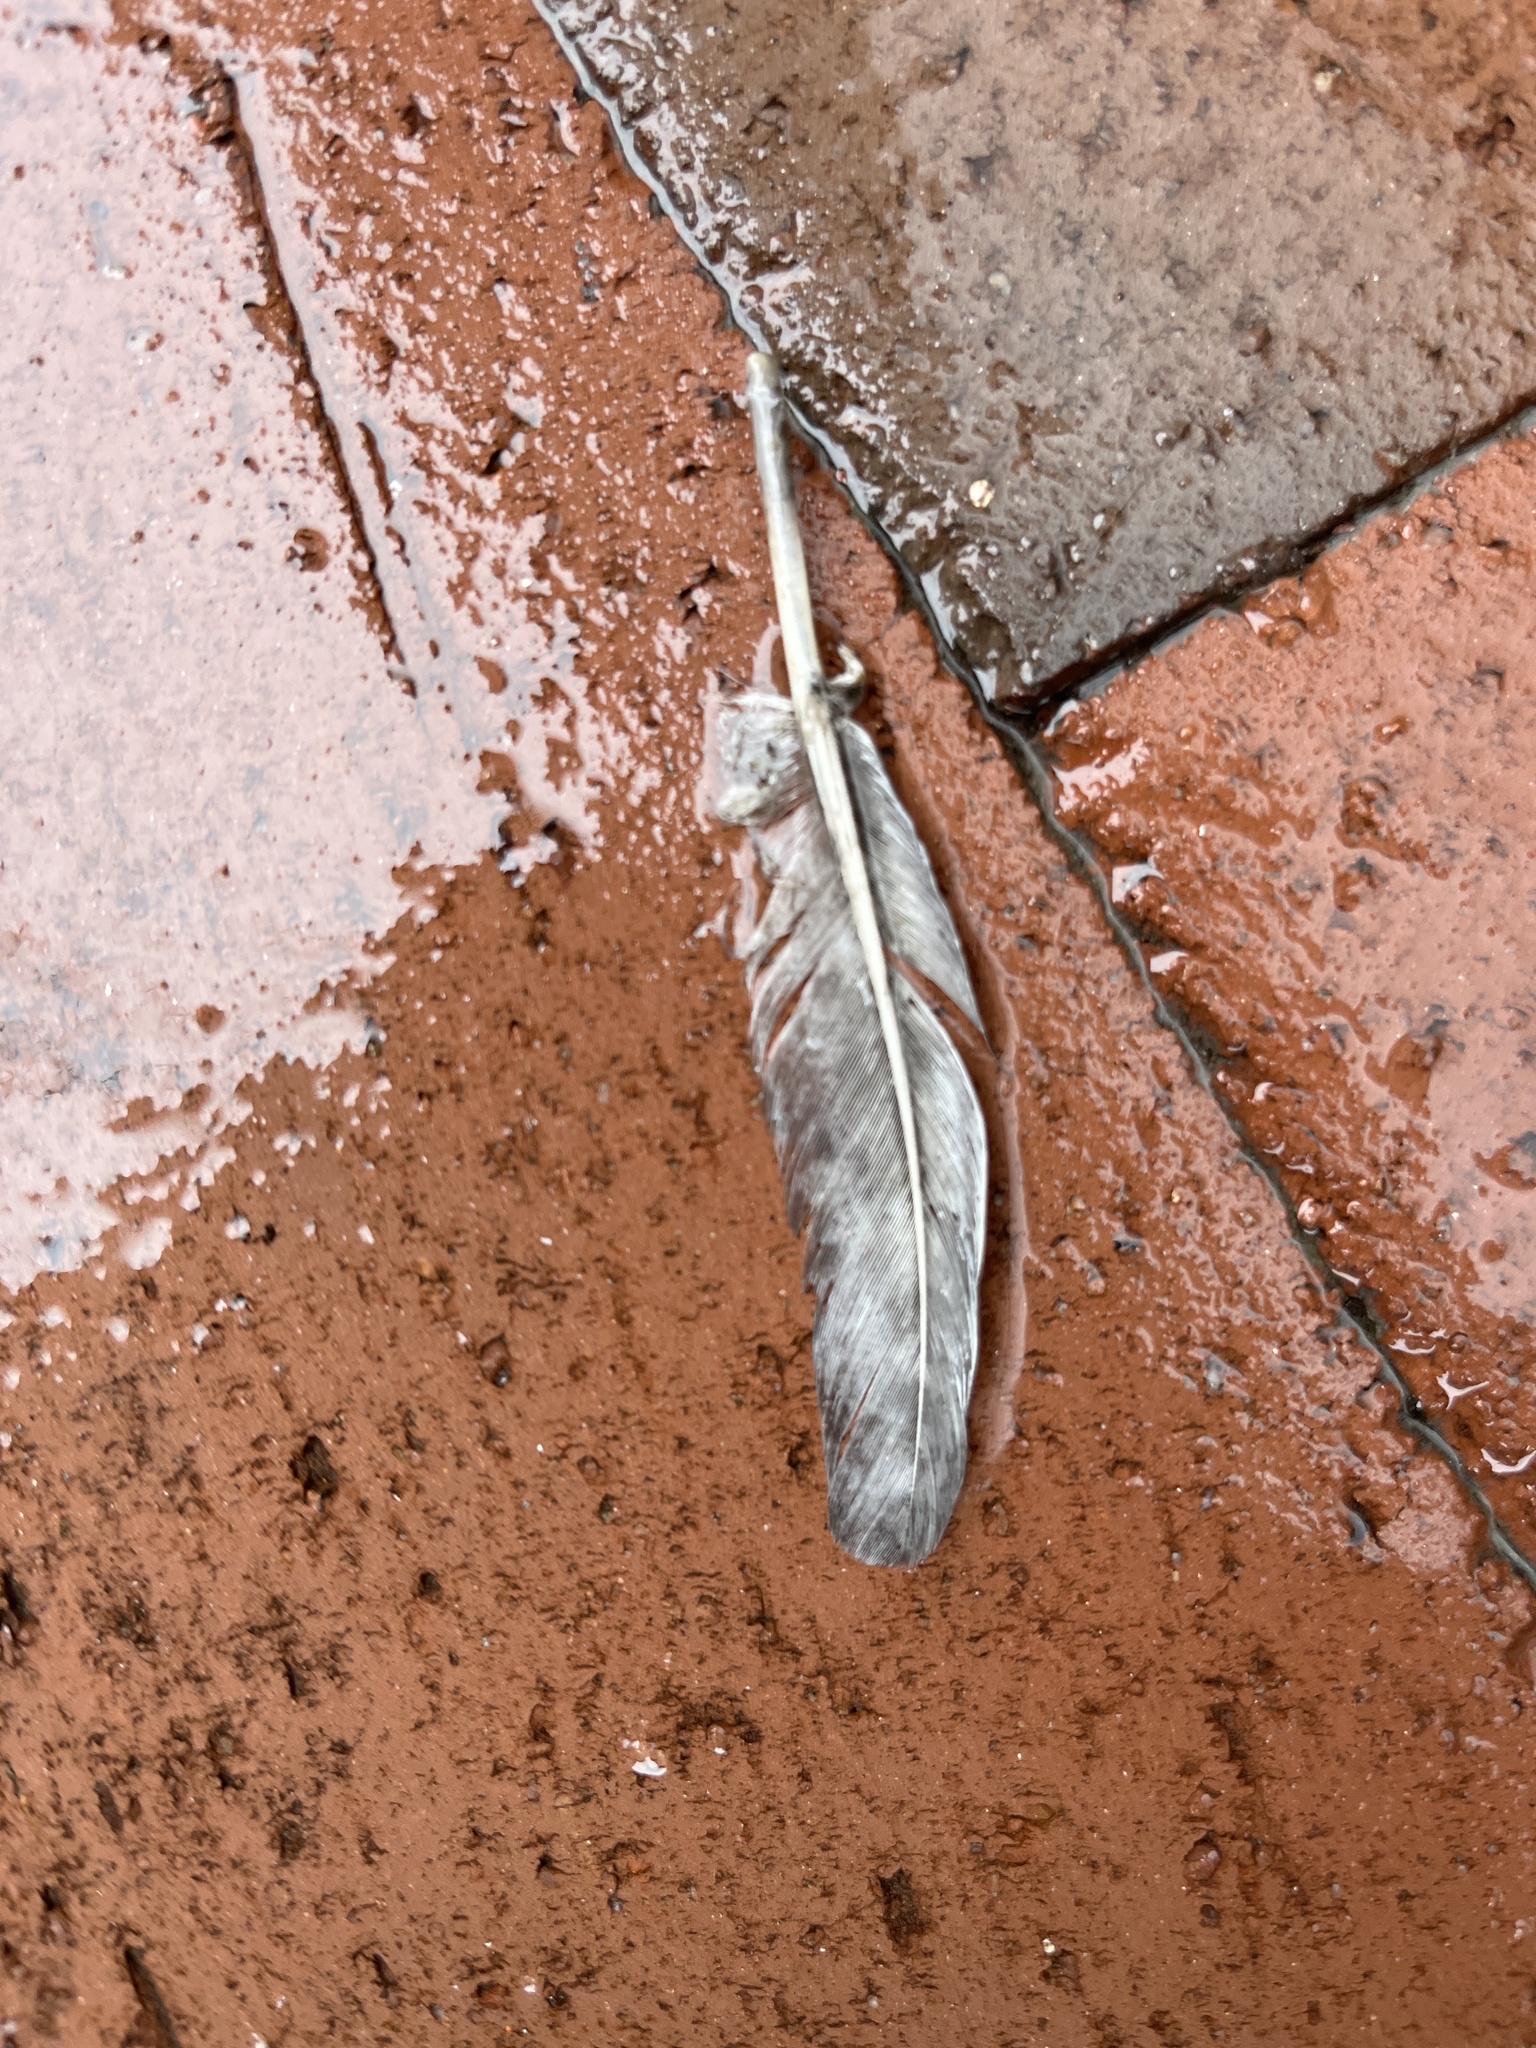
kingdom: Animalia
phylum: Chordata
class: Aves
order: Columbiformes
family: Columbidae
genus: Columba
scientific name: Columba livia
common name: Rock pigeon
